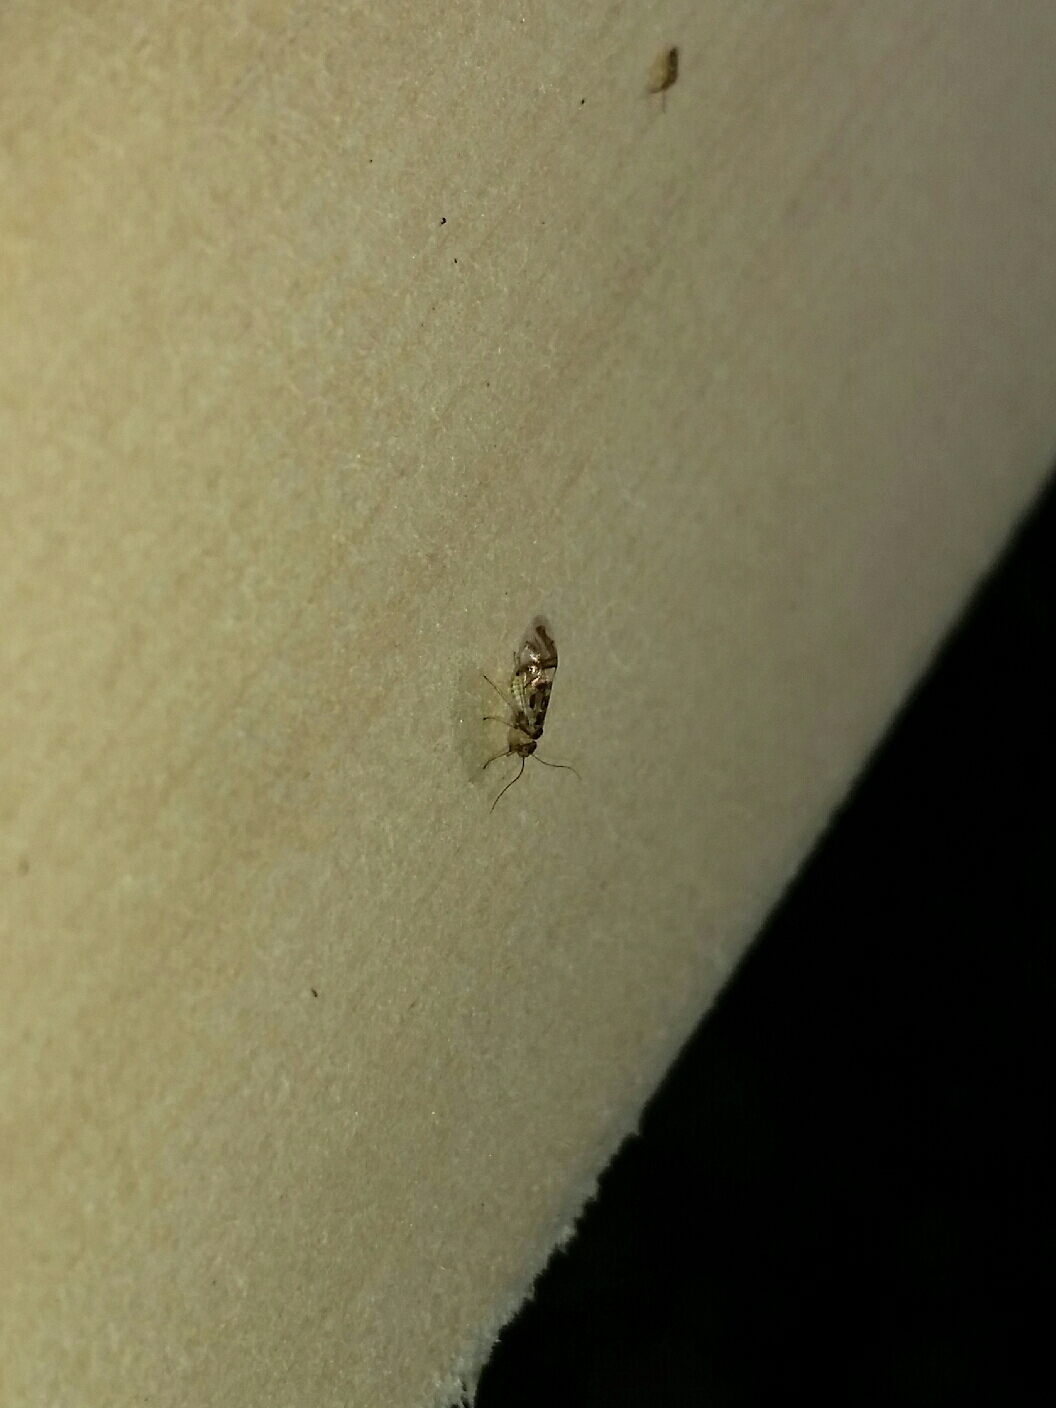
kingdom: Animalia
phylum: Arthropoda
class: Insecta
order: Psocodea
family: Stenopsocidae
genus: Graphopsocus
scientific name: Graphopsocus cruciatus
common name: Lizard bark louse
